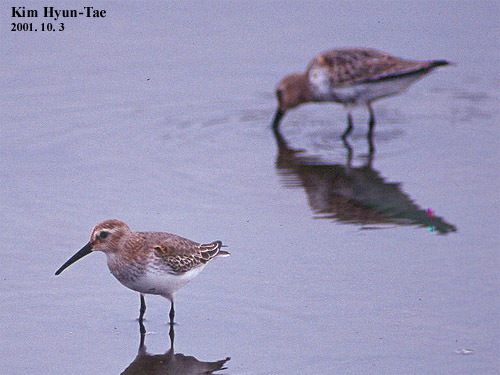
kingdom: Animalia
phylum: Chordata
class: Aves
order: Charadriiformes
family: Scolopacidae
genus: Calidris
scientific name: Calidris alpina
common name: Dunlin
